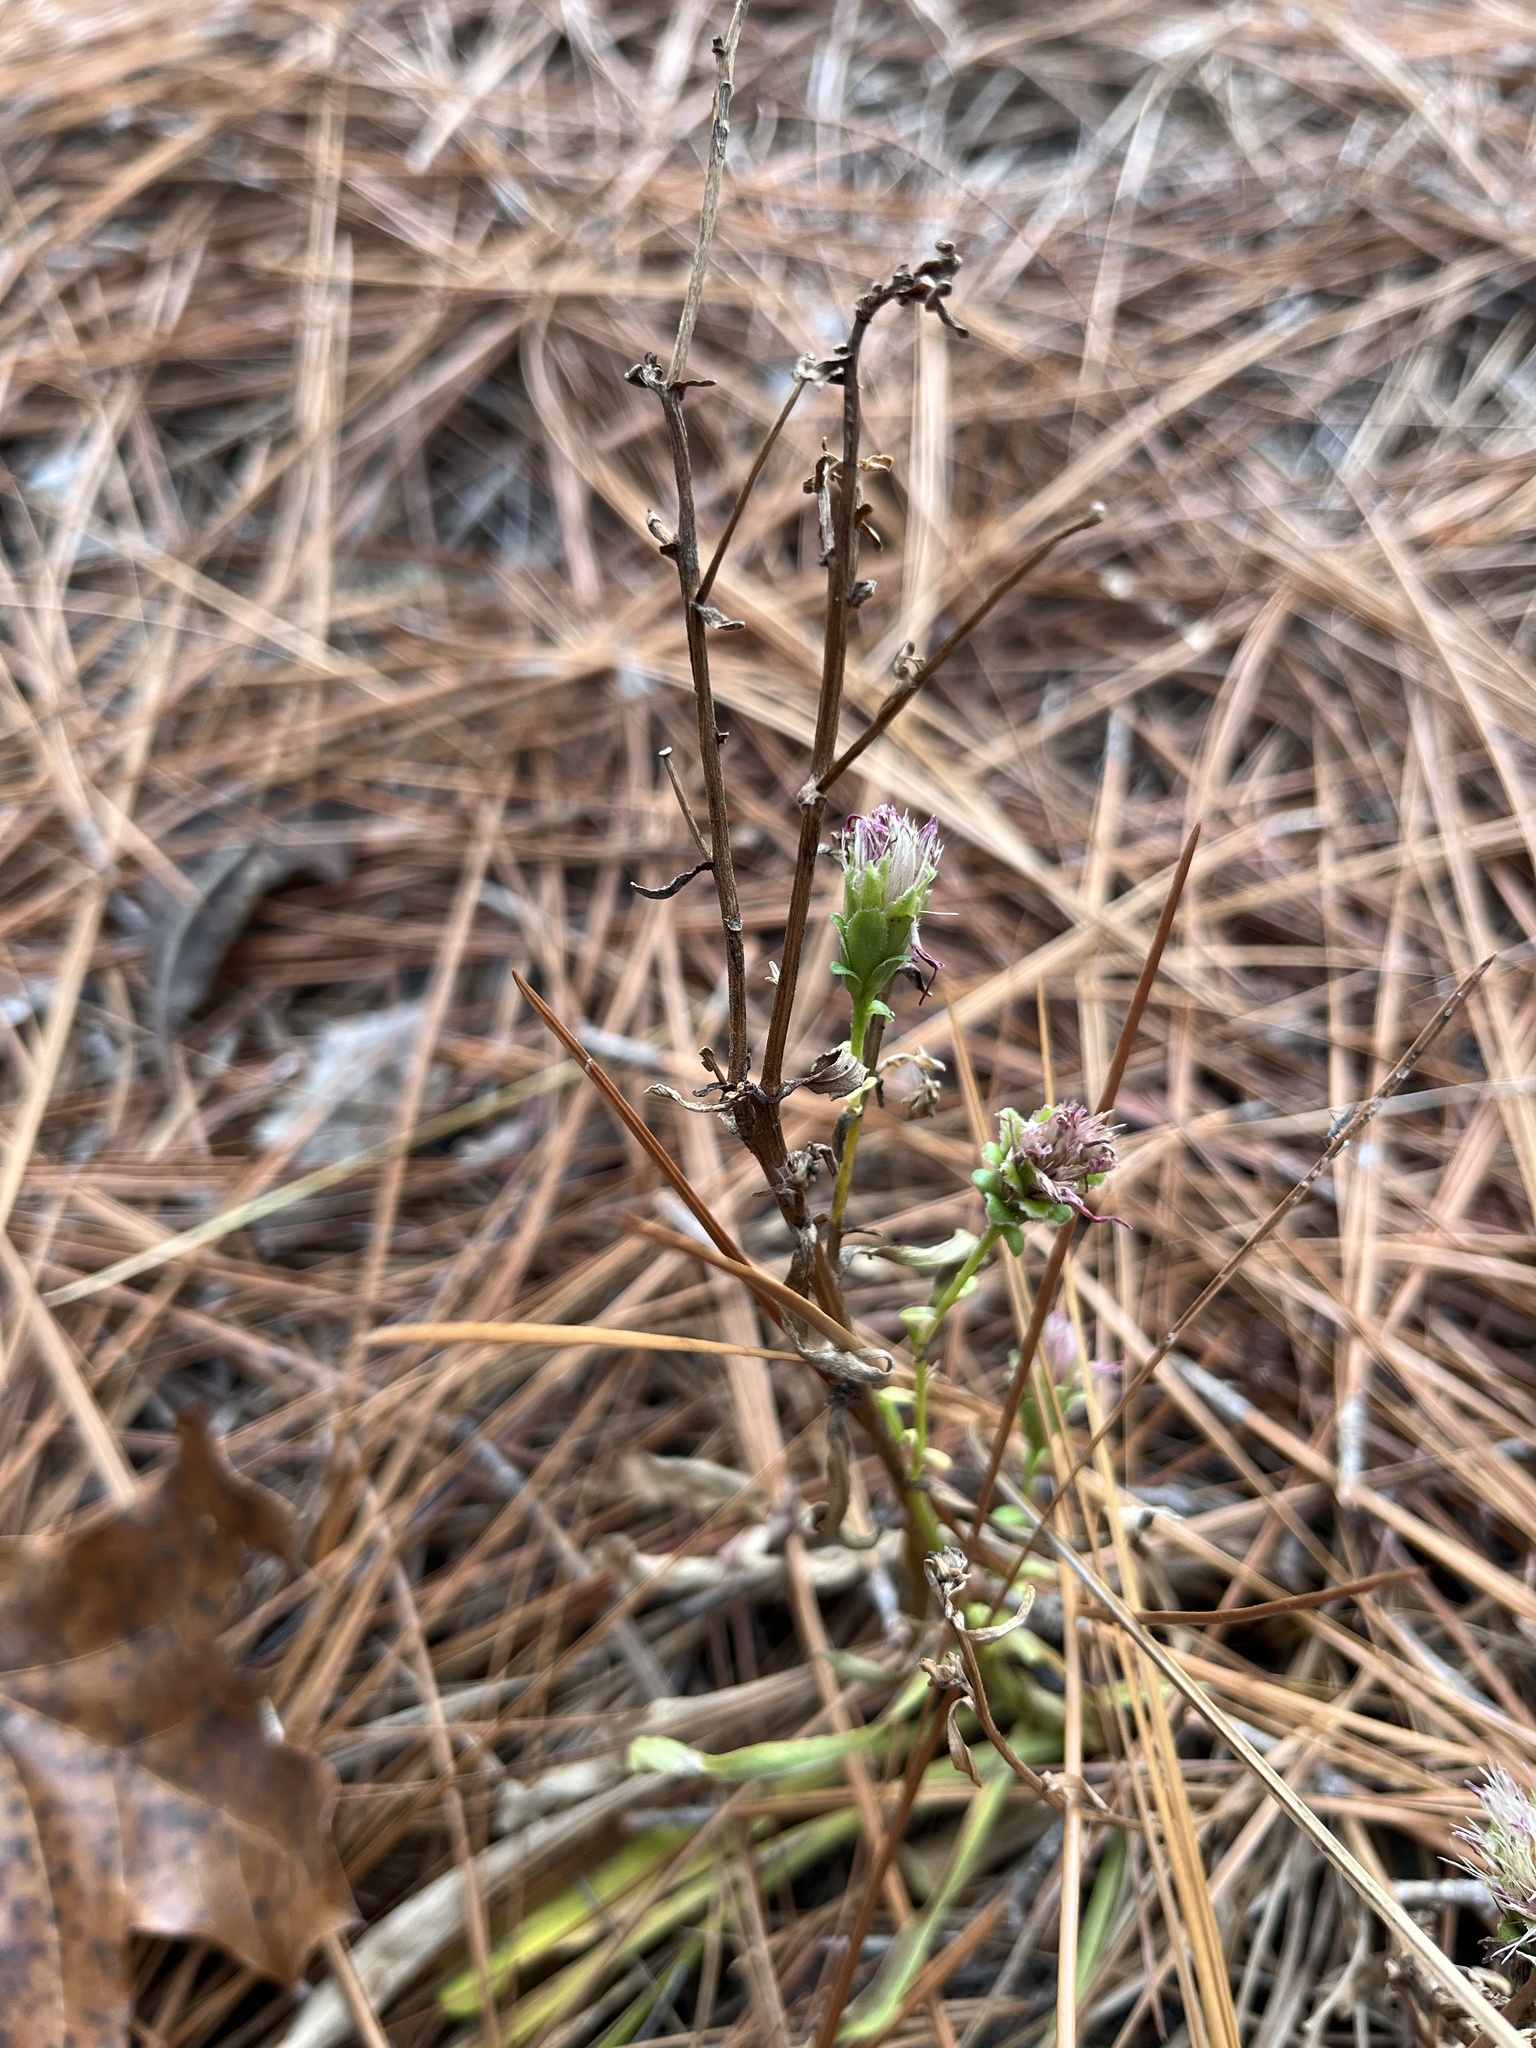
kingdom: Plantae
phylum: Tracheophyta
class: Magnoliopsida
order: Asterales
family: Asteraceae
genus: Carphephorus
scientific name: Carphephorus bellidifolius
